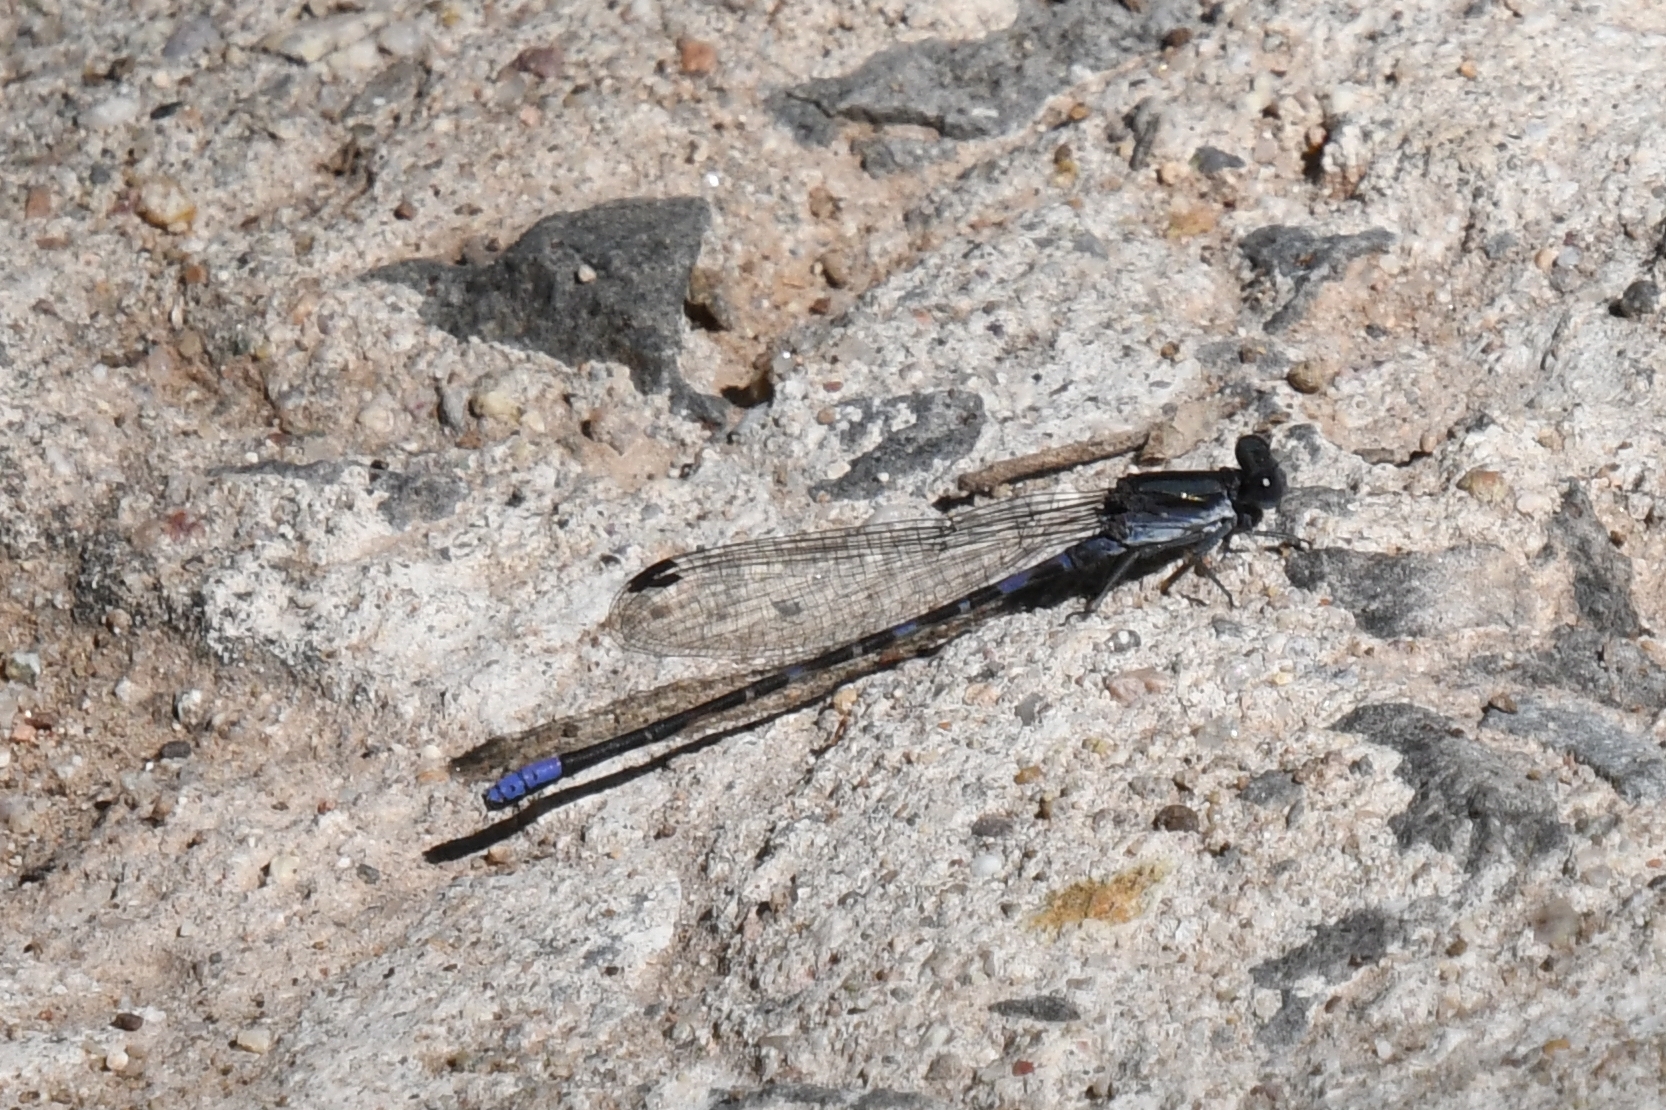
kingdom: Animalia
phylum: Arthropoda
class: Insecta
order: Odonata
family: Coenagrionidae
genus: Argia
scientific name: Argia immunda
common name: Kiowa dancer
